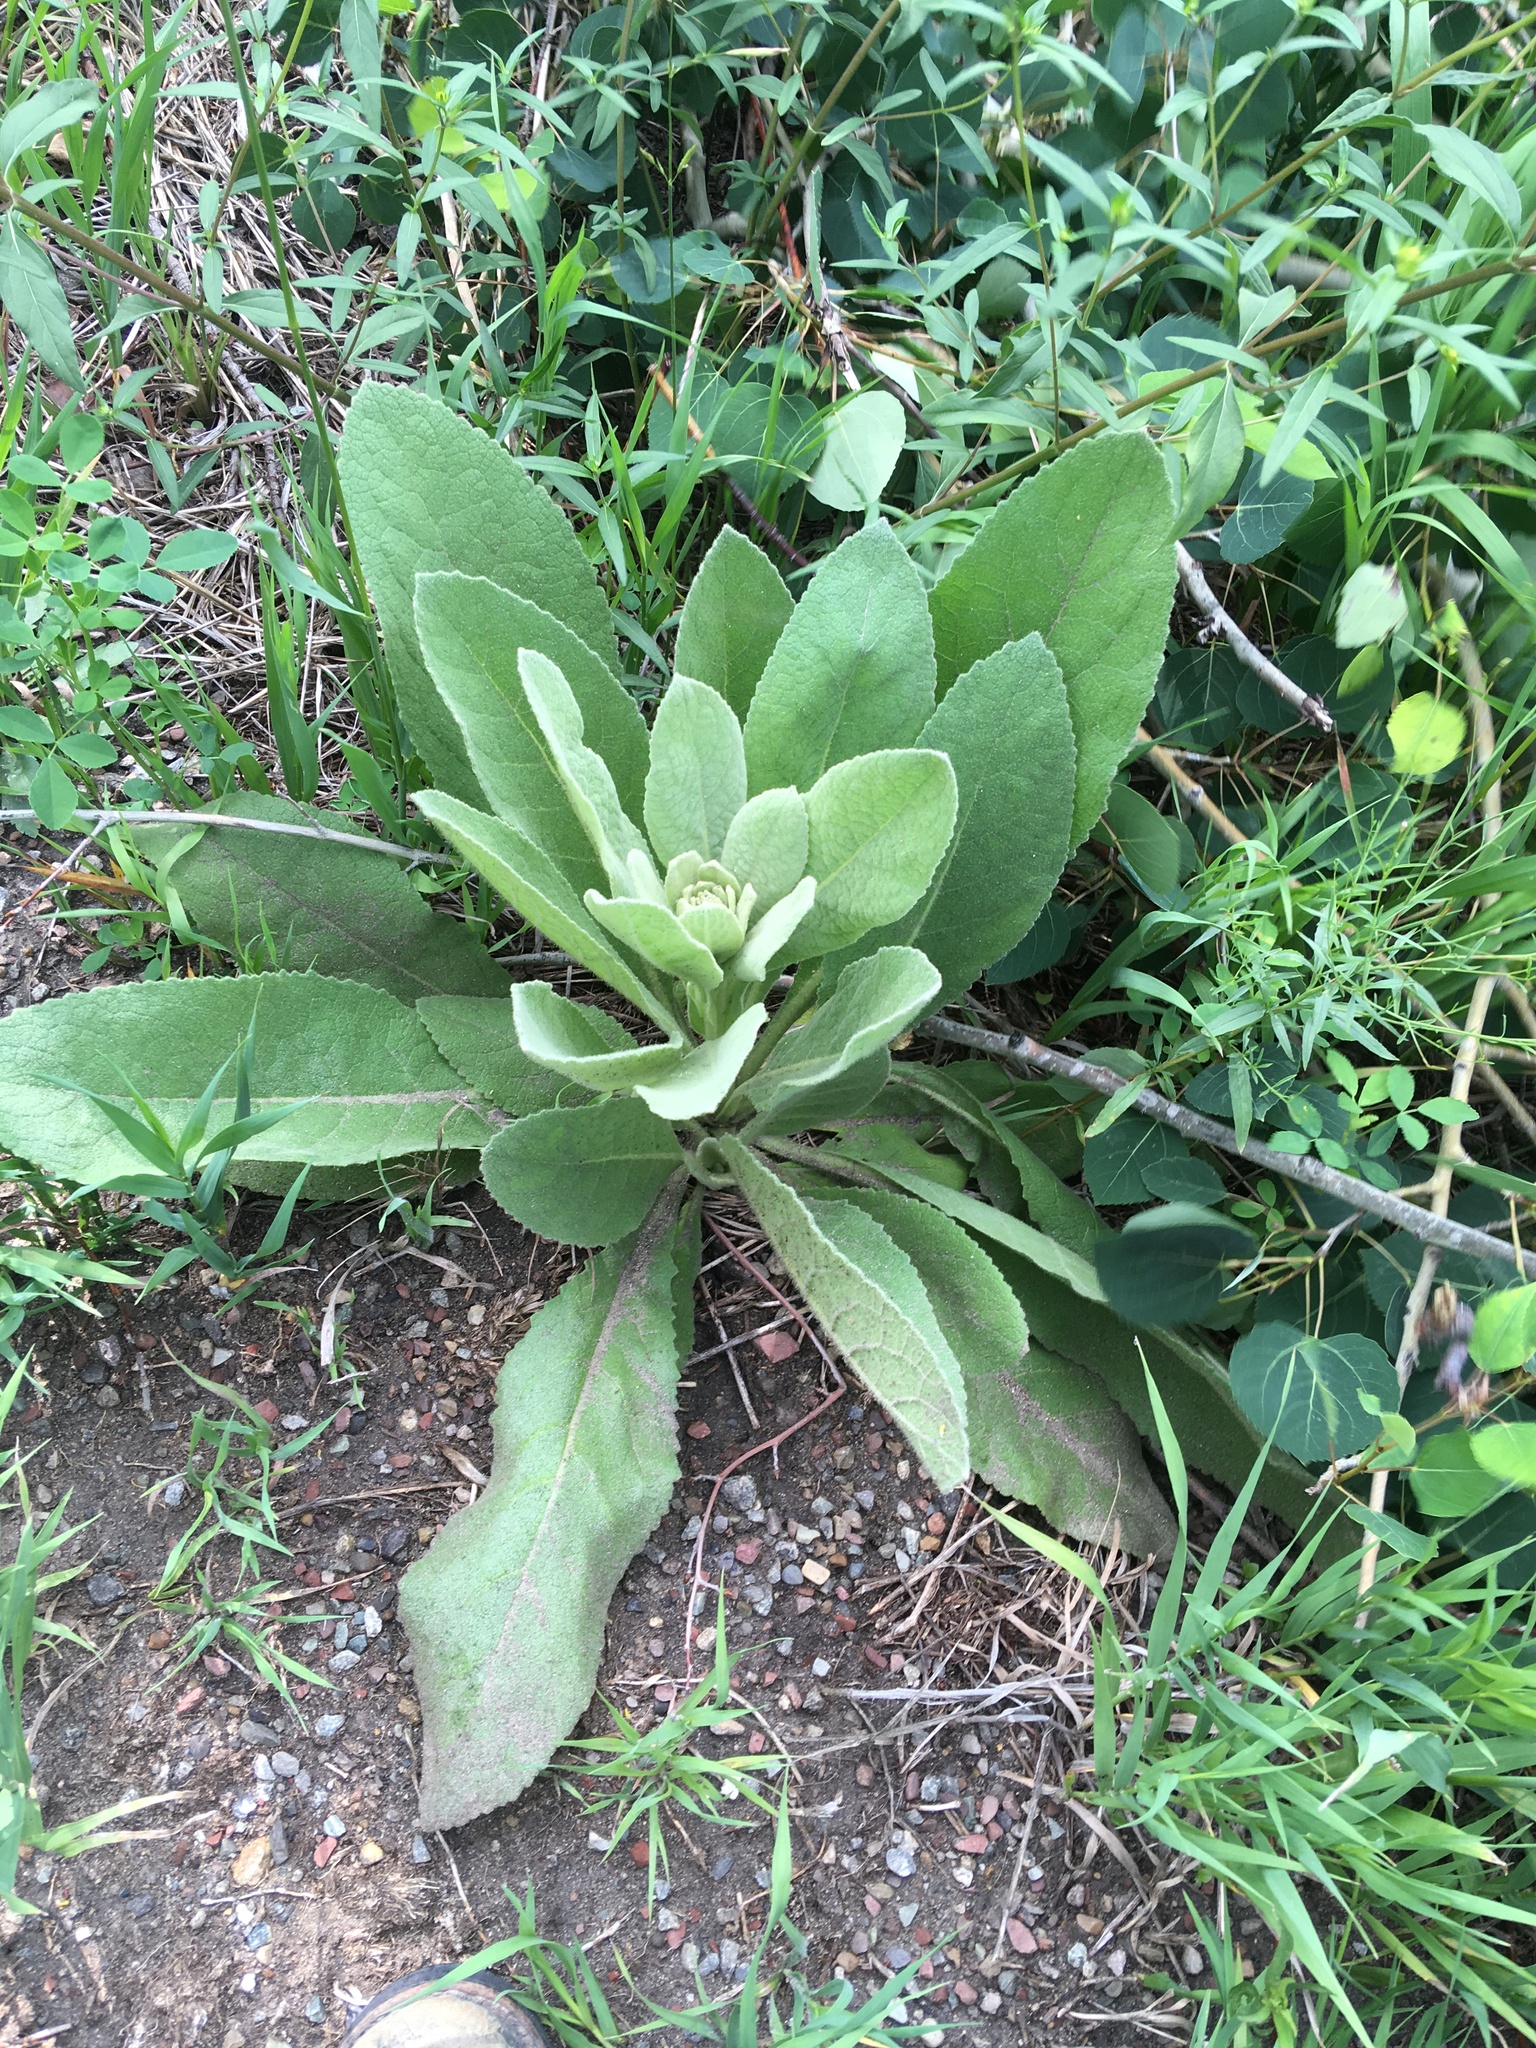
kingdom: Plantae
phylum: Tracheophyta
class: Magnoliopsida
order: Lamiales
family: Scrophulariaceae
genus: Verbascum
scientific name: Verbascum thapsus
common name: Common mullein
